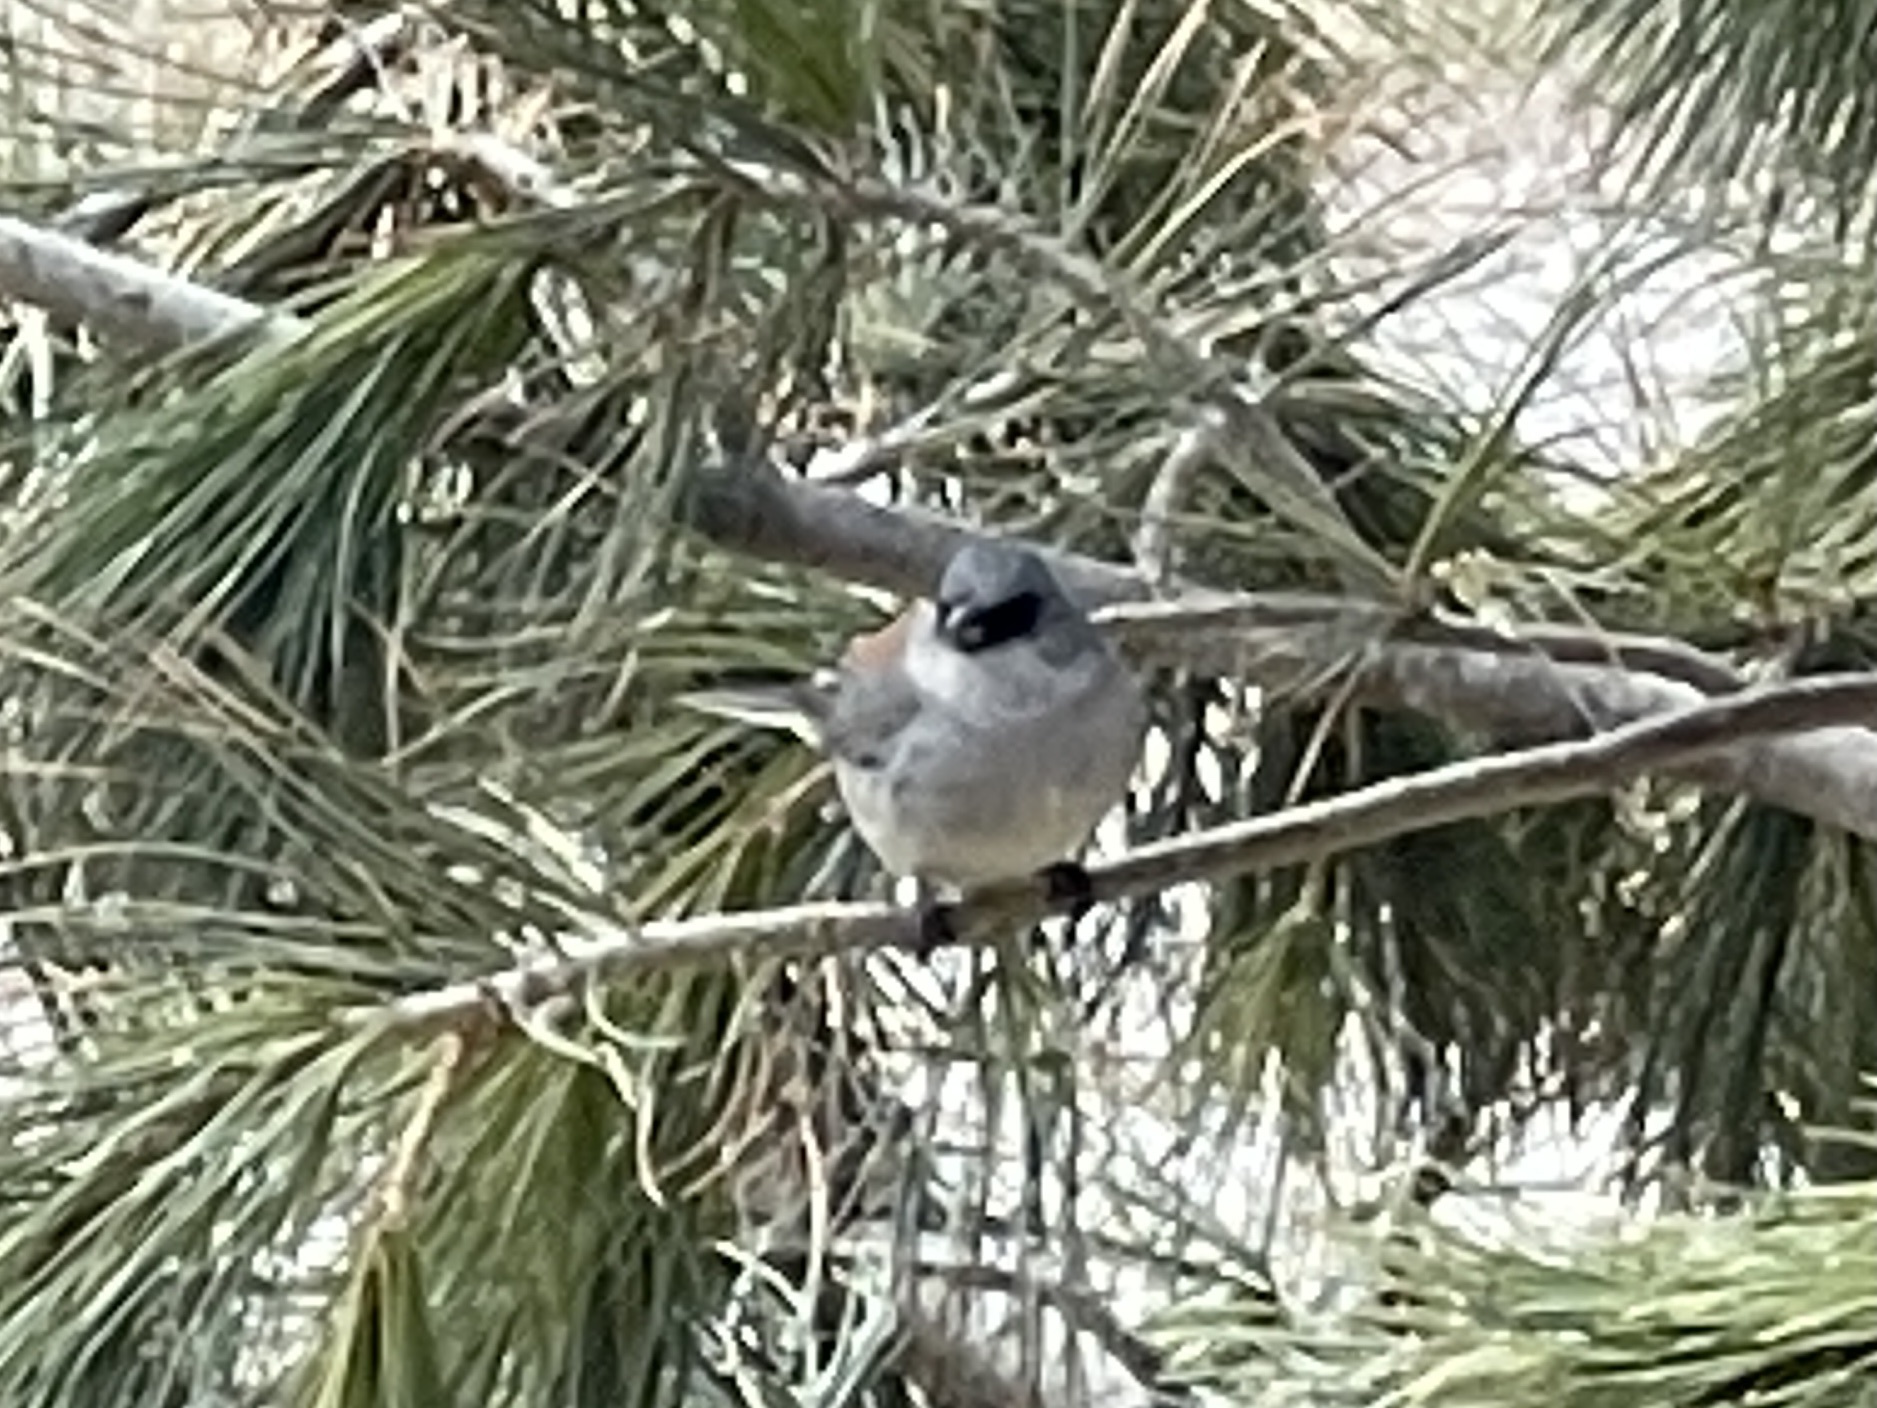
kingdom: Animalia
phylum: Chordata
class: Aves
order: Passeriformes
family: Passerellidae
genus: Junco
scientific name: Junco hyemalis
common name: Dark-eyed junco
